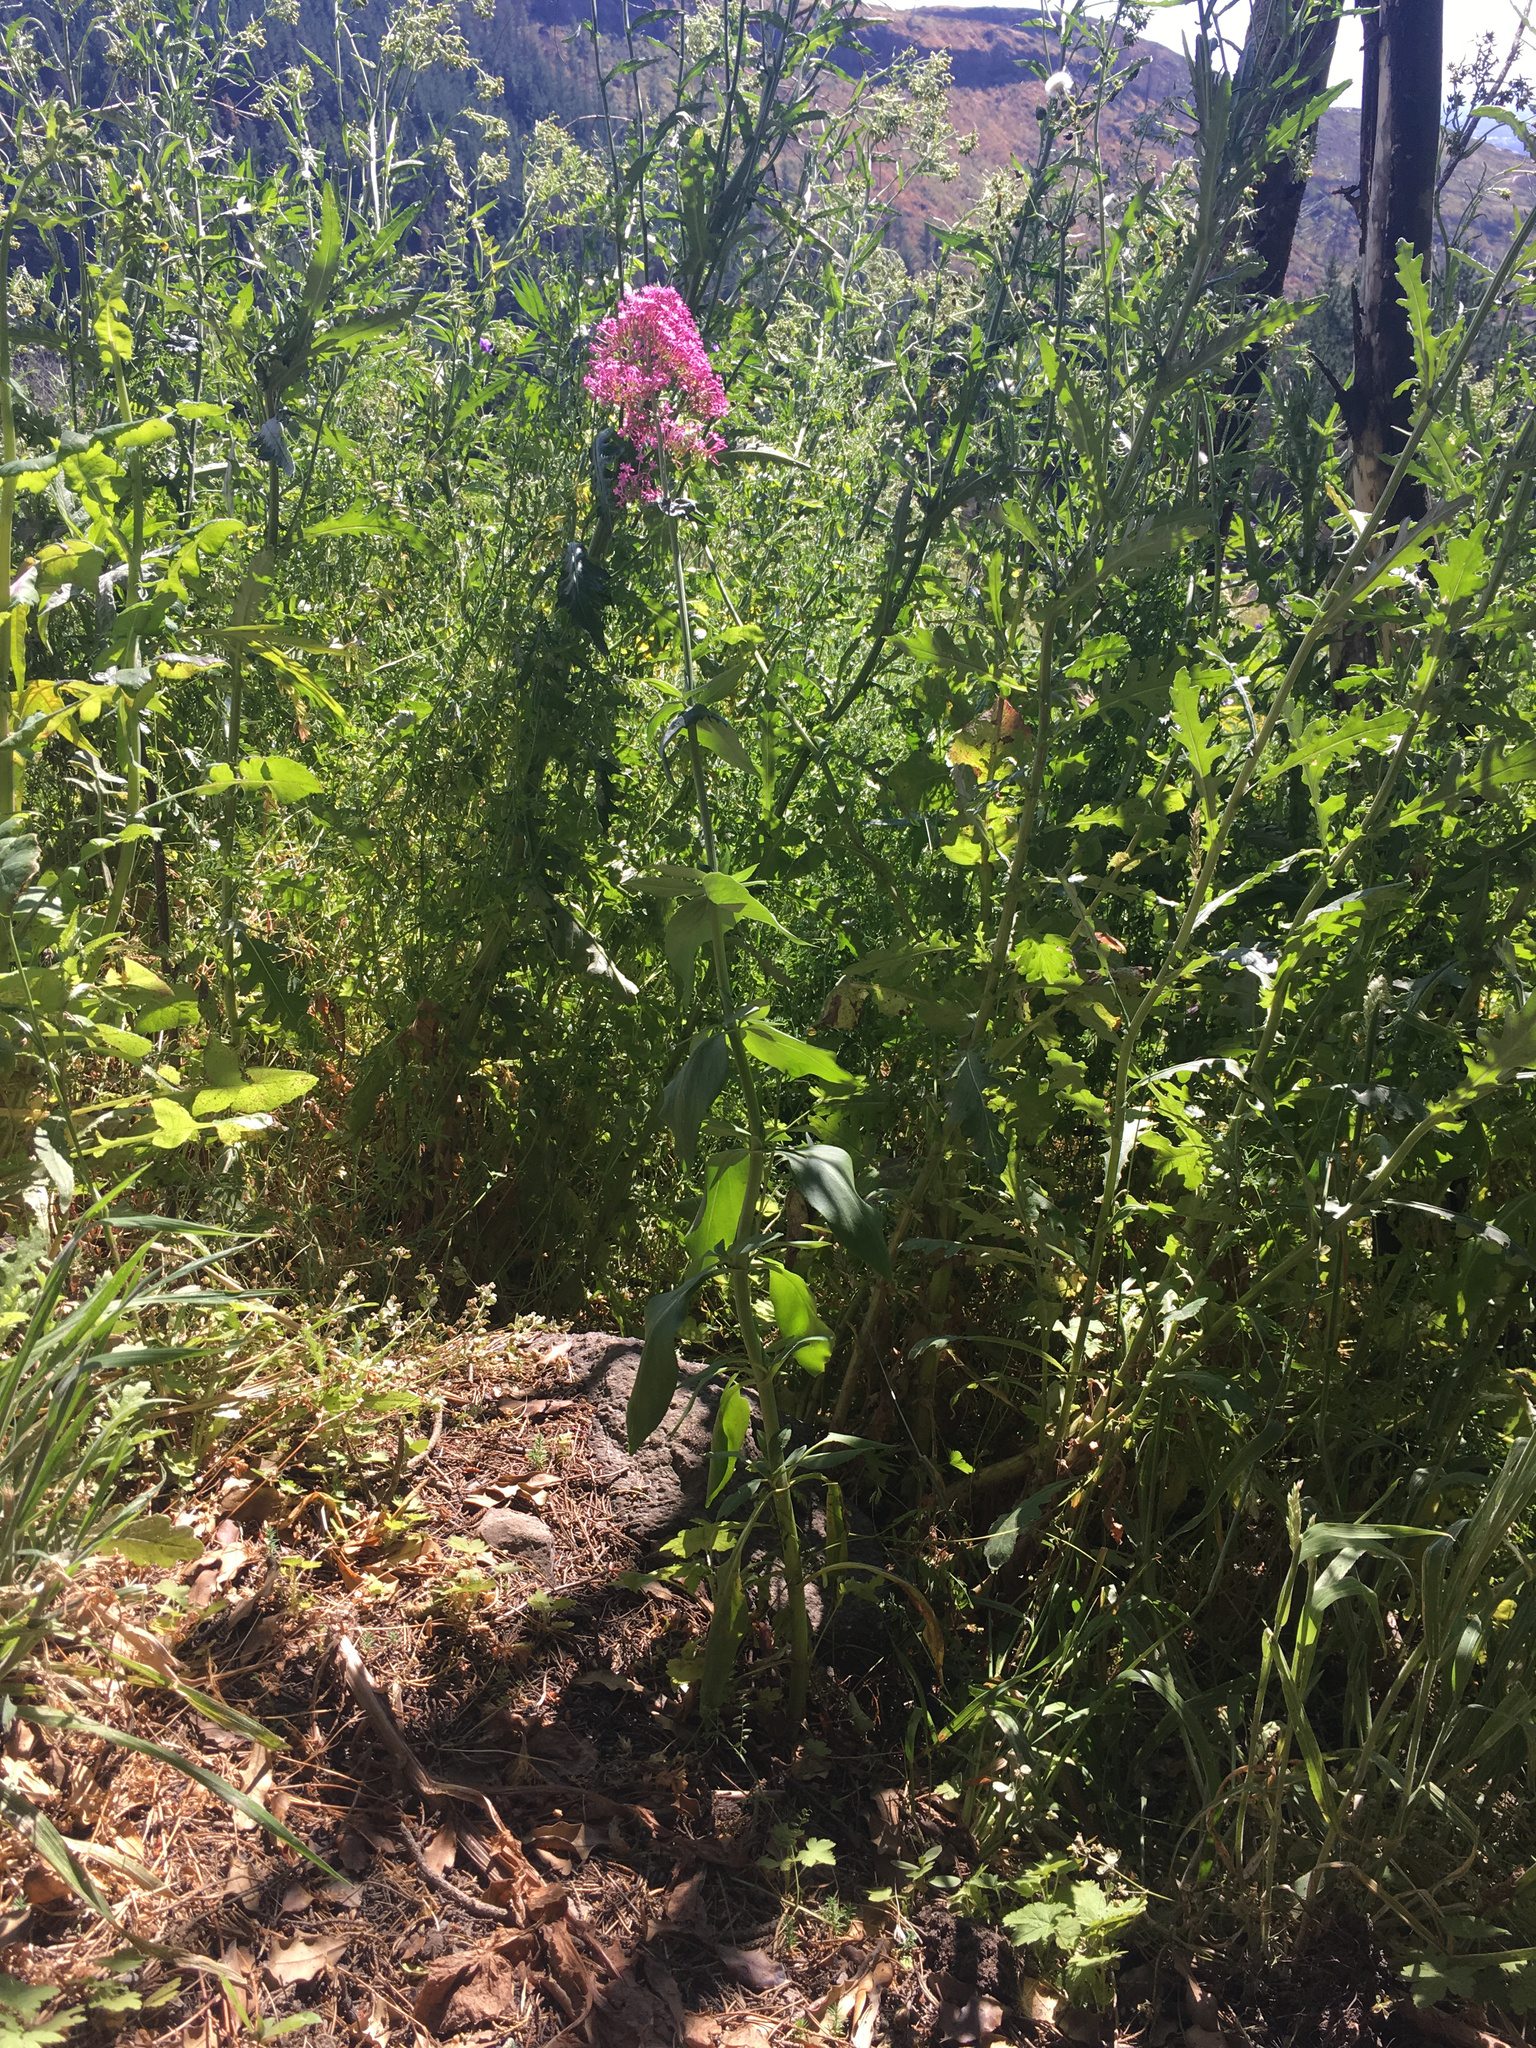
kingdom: Plantae
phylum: Tracheophyta
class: Magnoliopsida
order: Dipsacales
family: Caprifoliaceae
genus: Centranthus
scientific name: Centranthus ruber
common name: Red valerian
